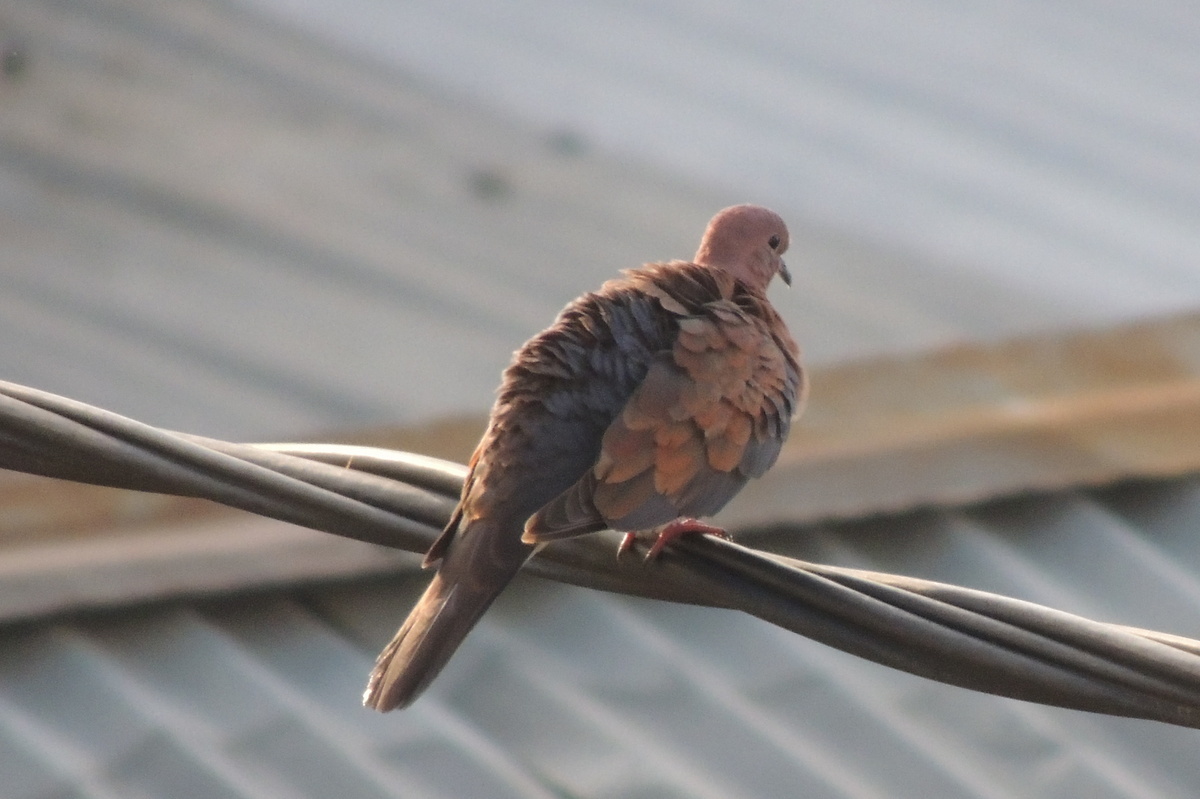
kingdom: Animalia
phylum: Chordata
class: Aves
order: Columbiformes
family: Columbidae
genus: Spilopelia
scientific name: Spilopelia senegalensis
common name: Laughing dove
